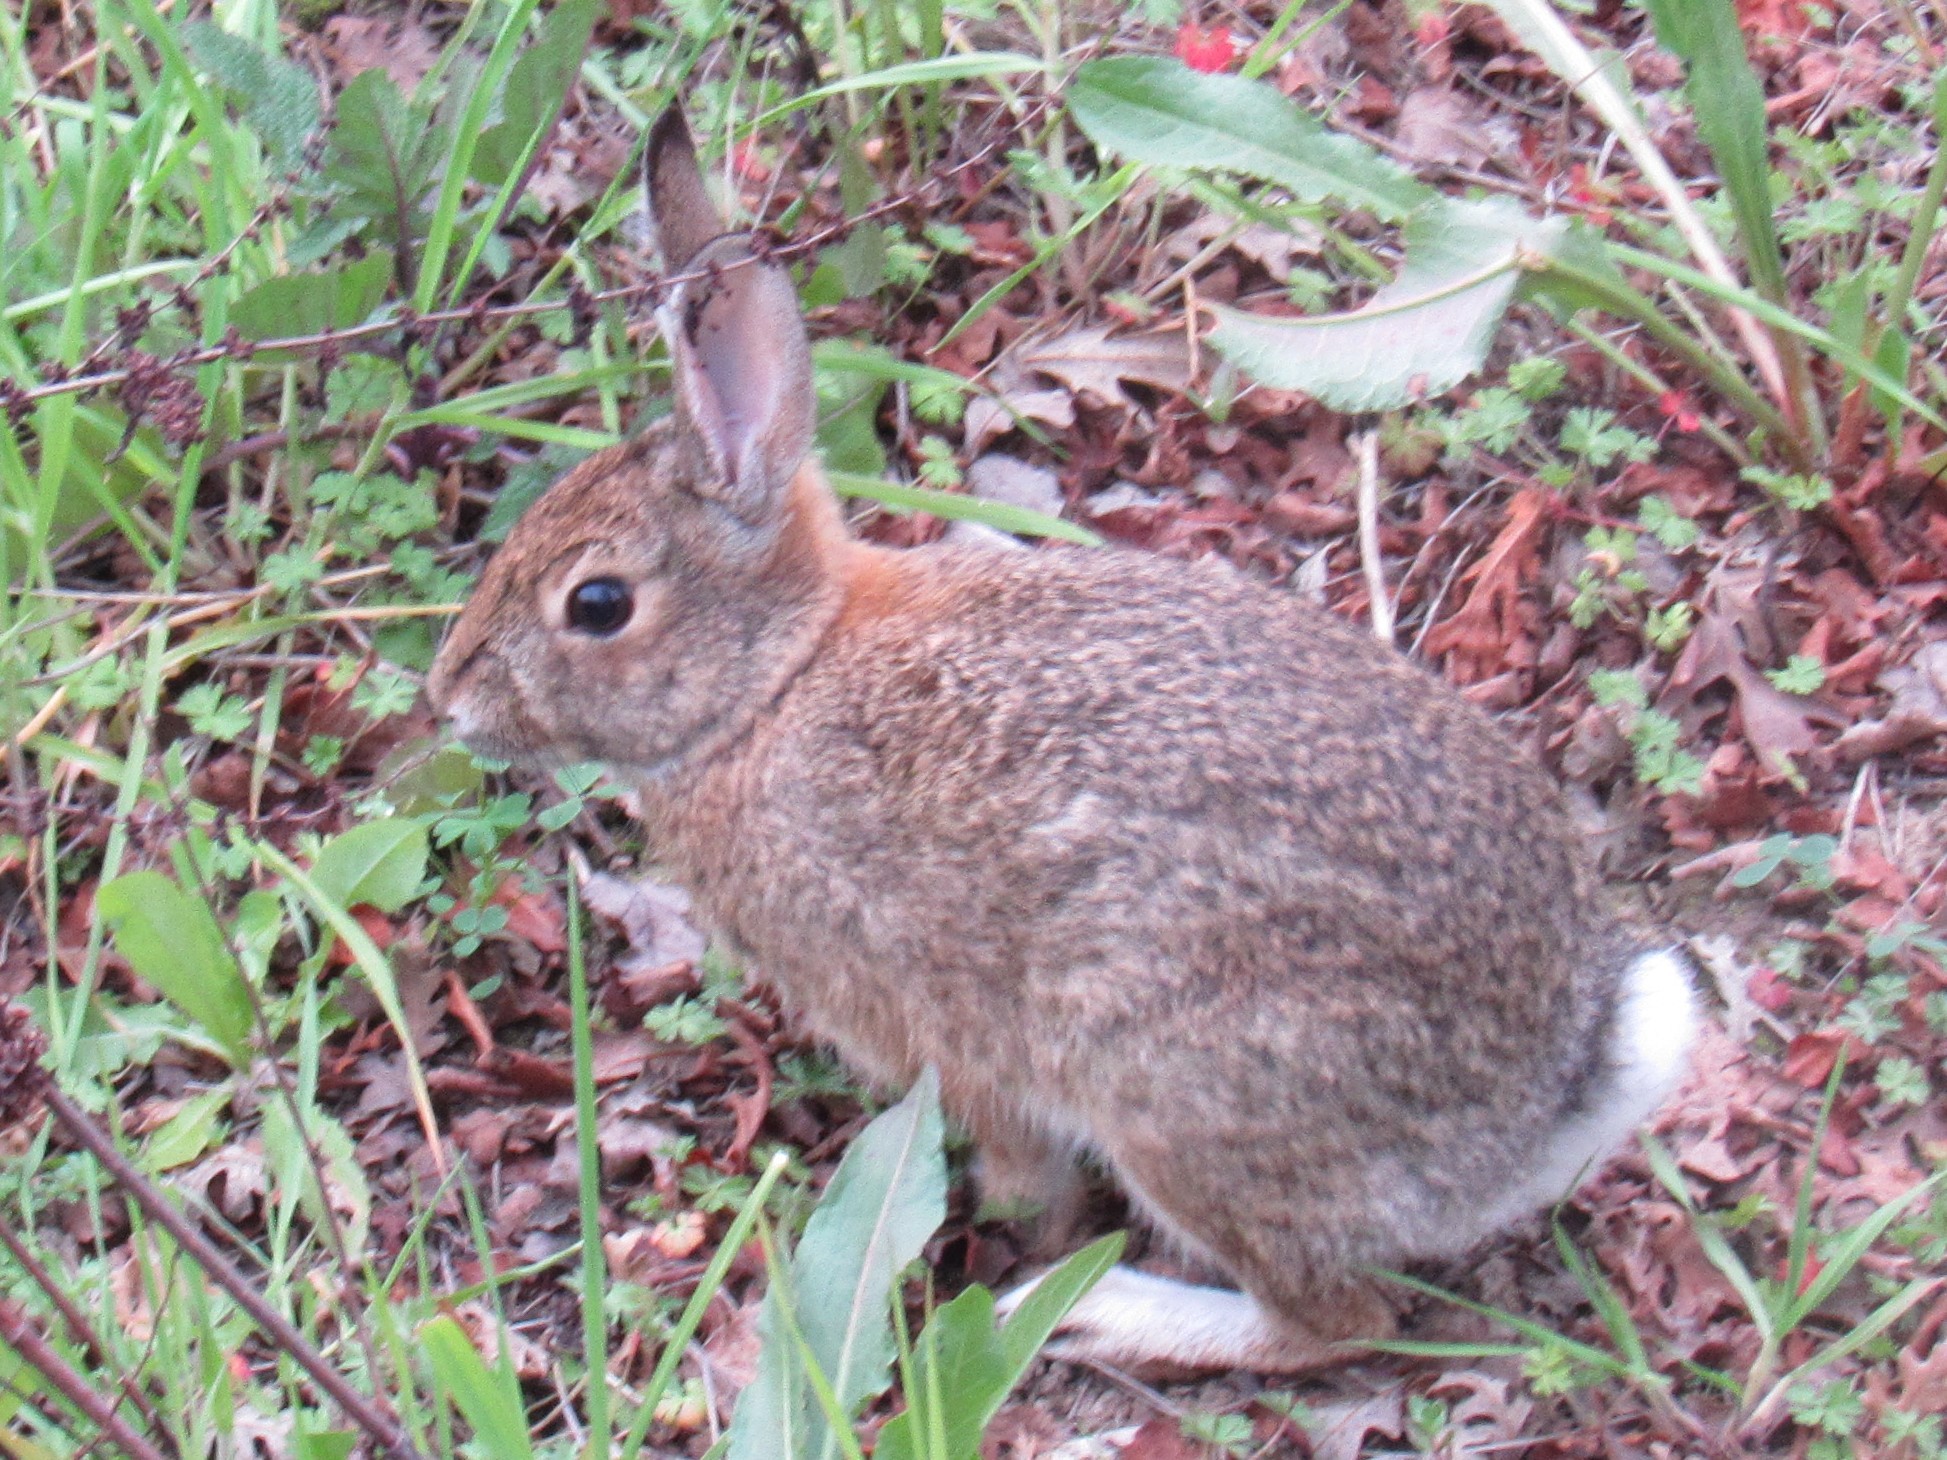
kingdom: Animalia
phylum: Chordata
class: Mammalia
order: Lagomorpha
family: Leporidae
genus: Sylvilagus
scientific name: Sylvilagus audubonii
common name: Desert cottontail
